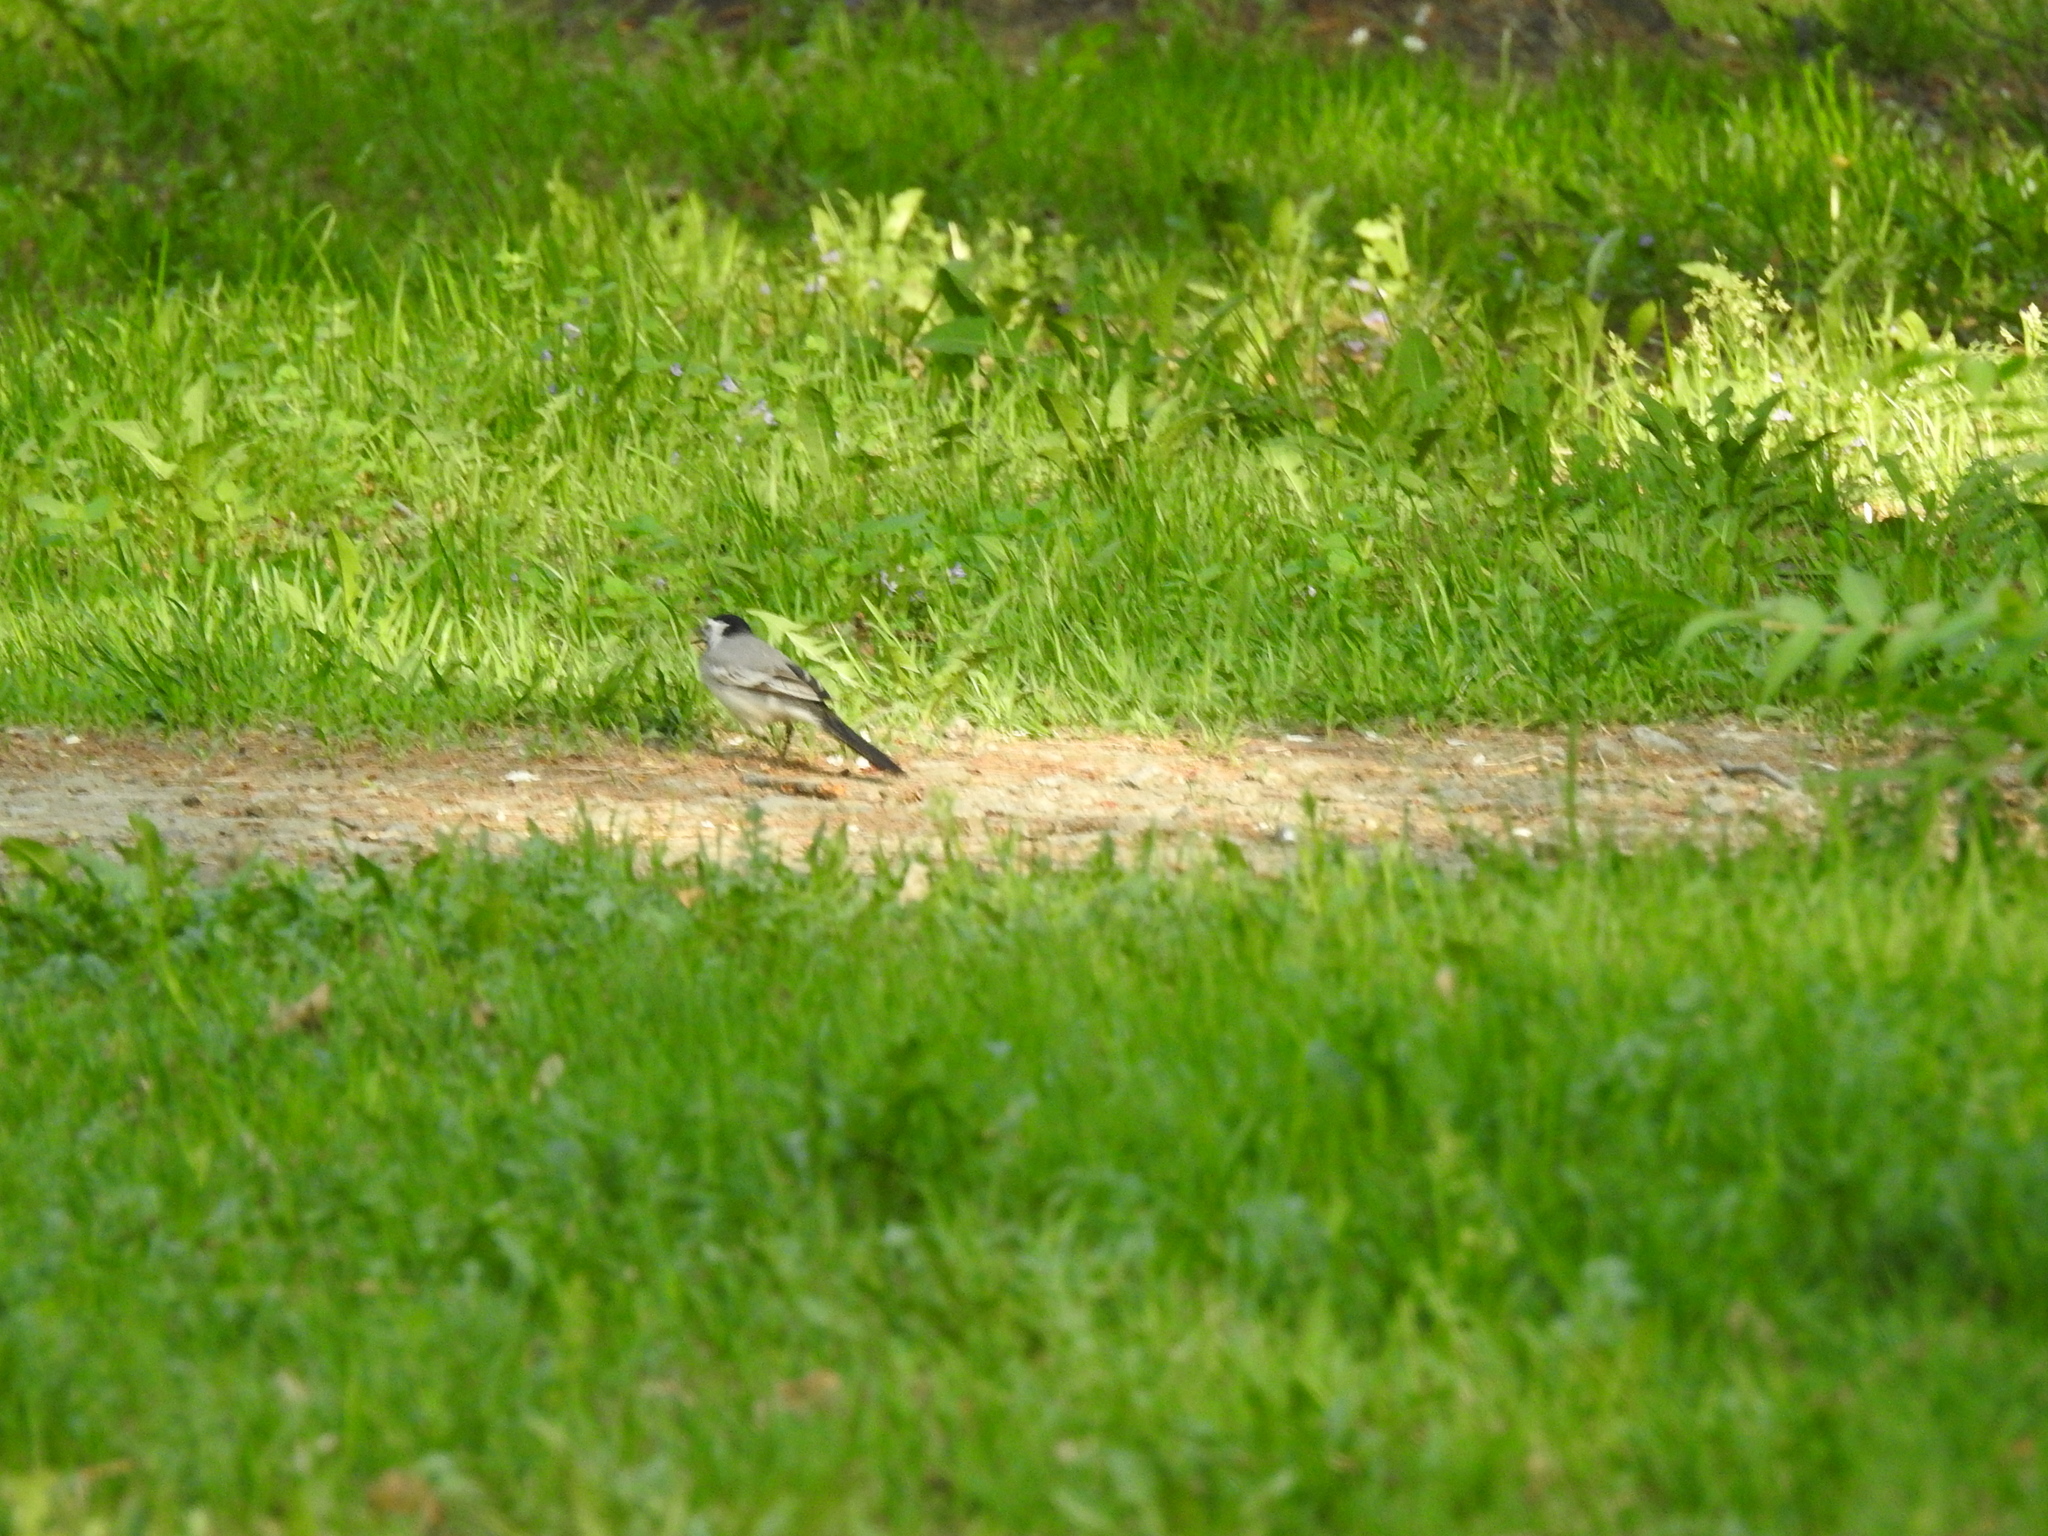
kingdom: Animalia
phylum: Chordata
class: Aves
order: Passeriformes
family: Motacillidae
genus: Motacilla
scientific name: Motacilla alba
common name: White wagtail
